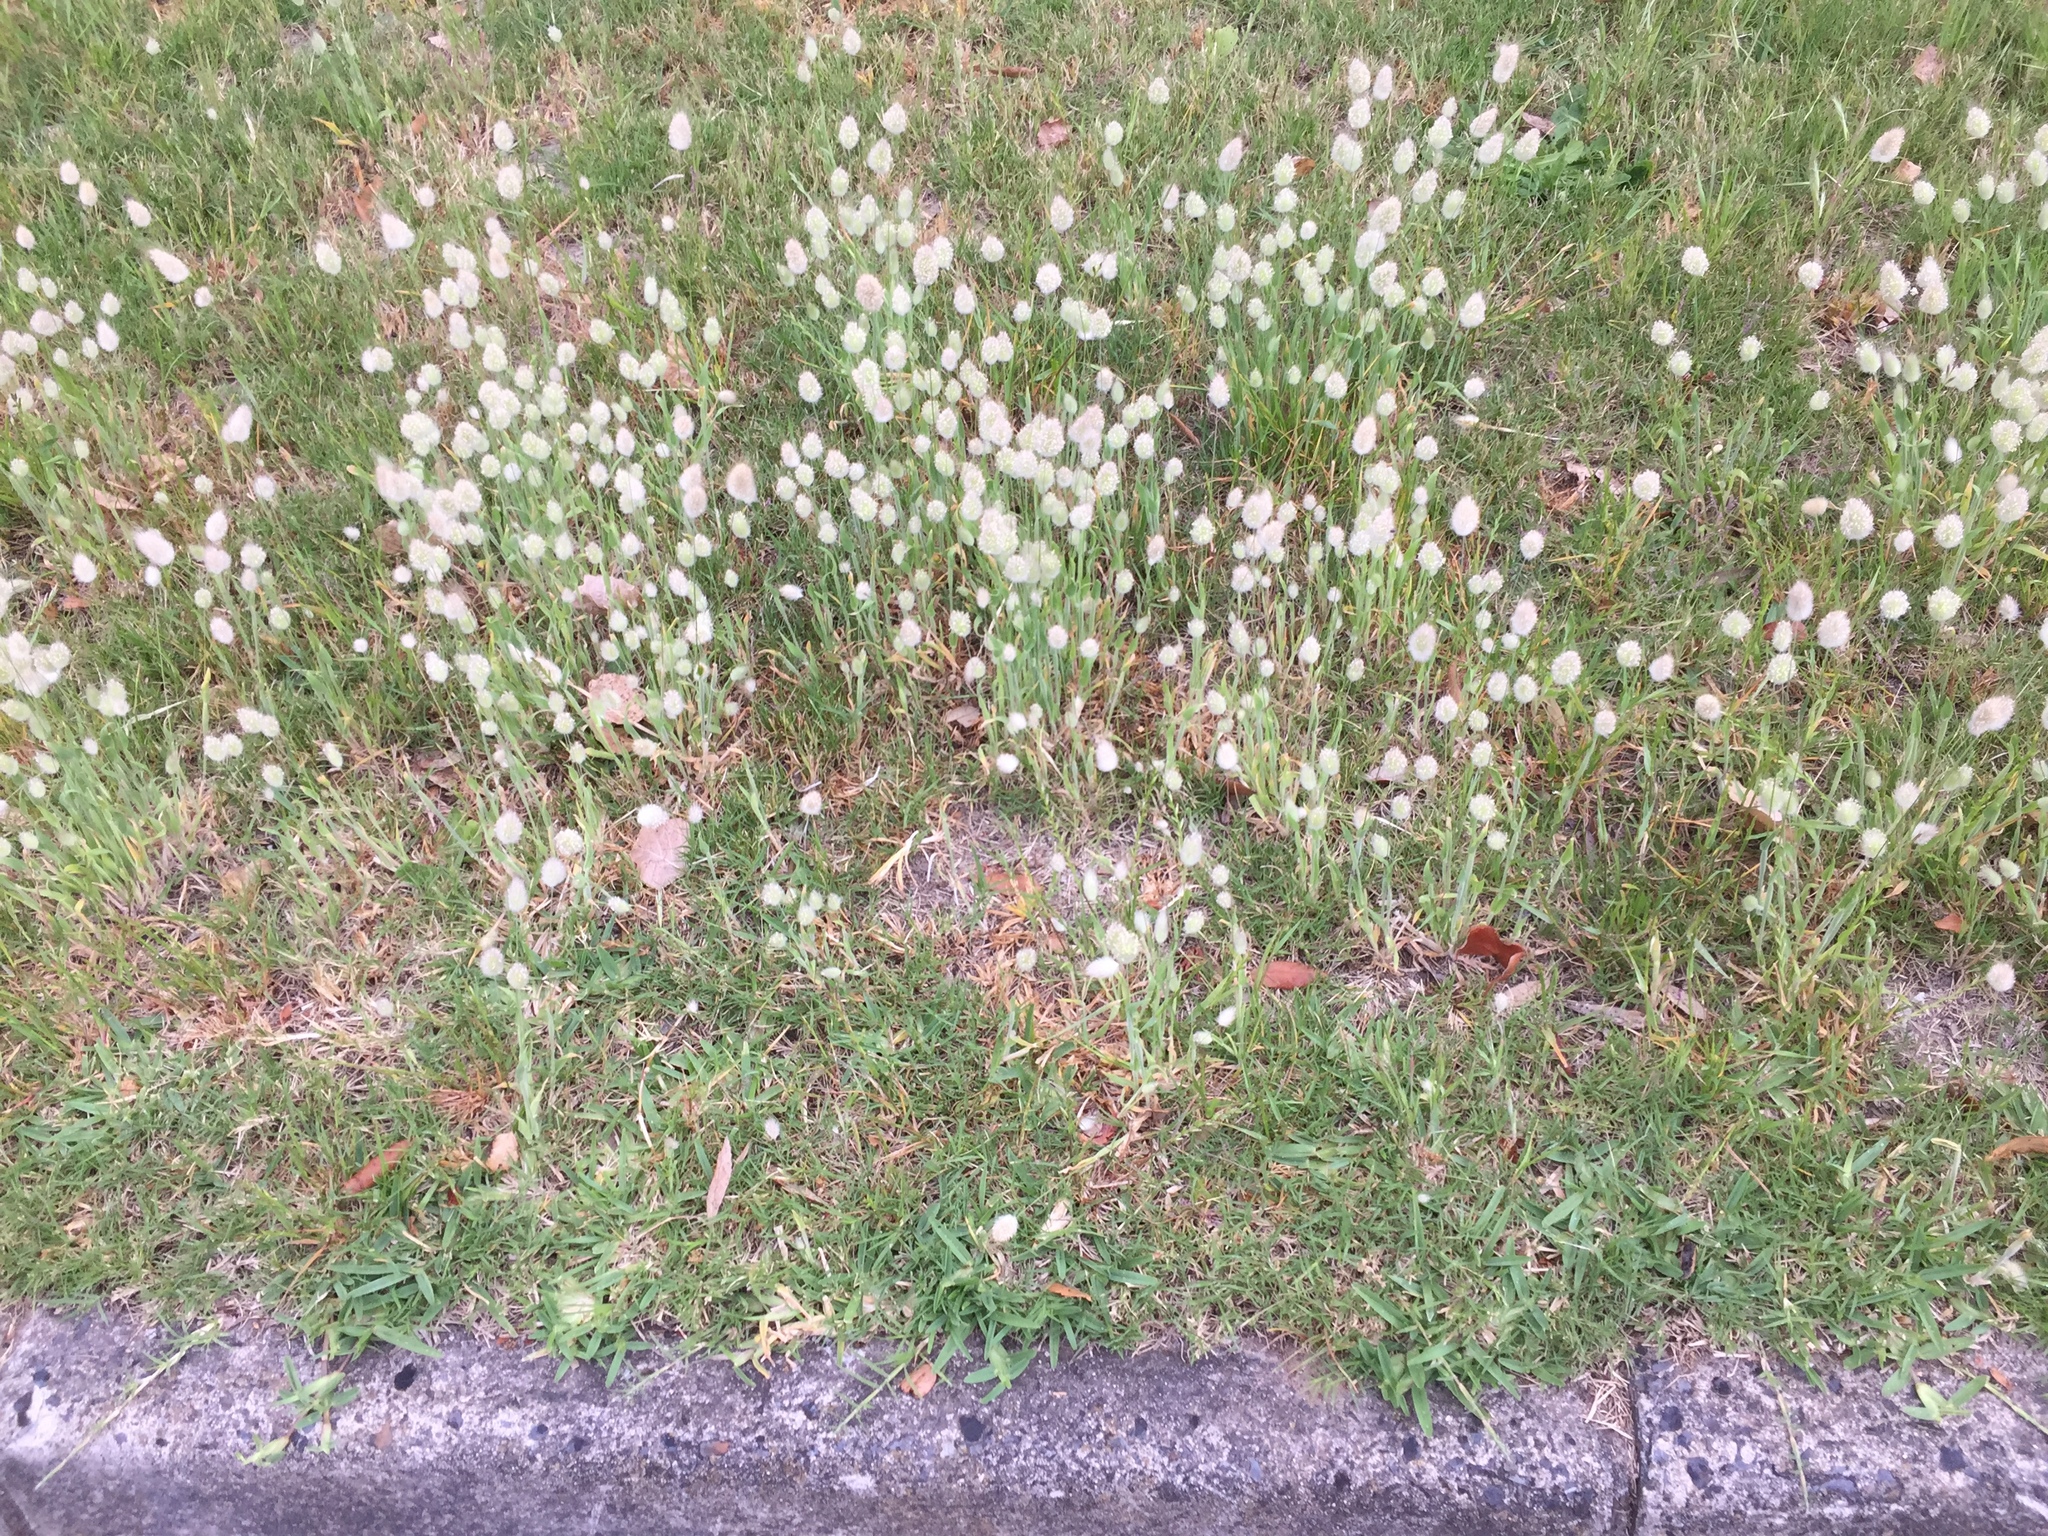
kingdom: Plantae
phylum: Tracheophyta
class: Liliopsida
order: Poales
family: Poaceae
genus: Lagurus
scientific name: Lagurus ovatus
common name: Hare's-tail
